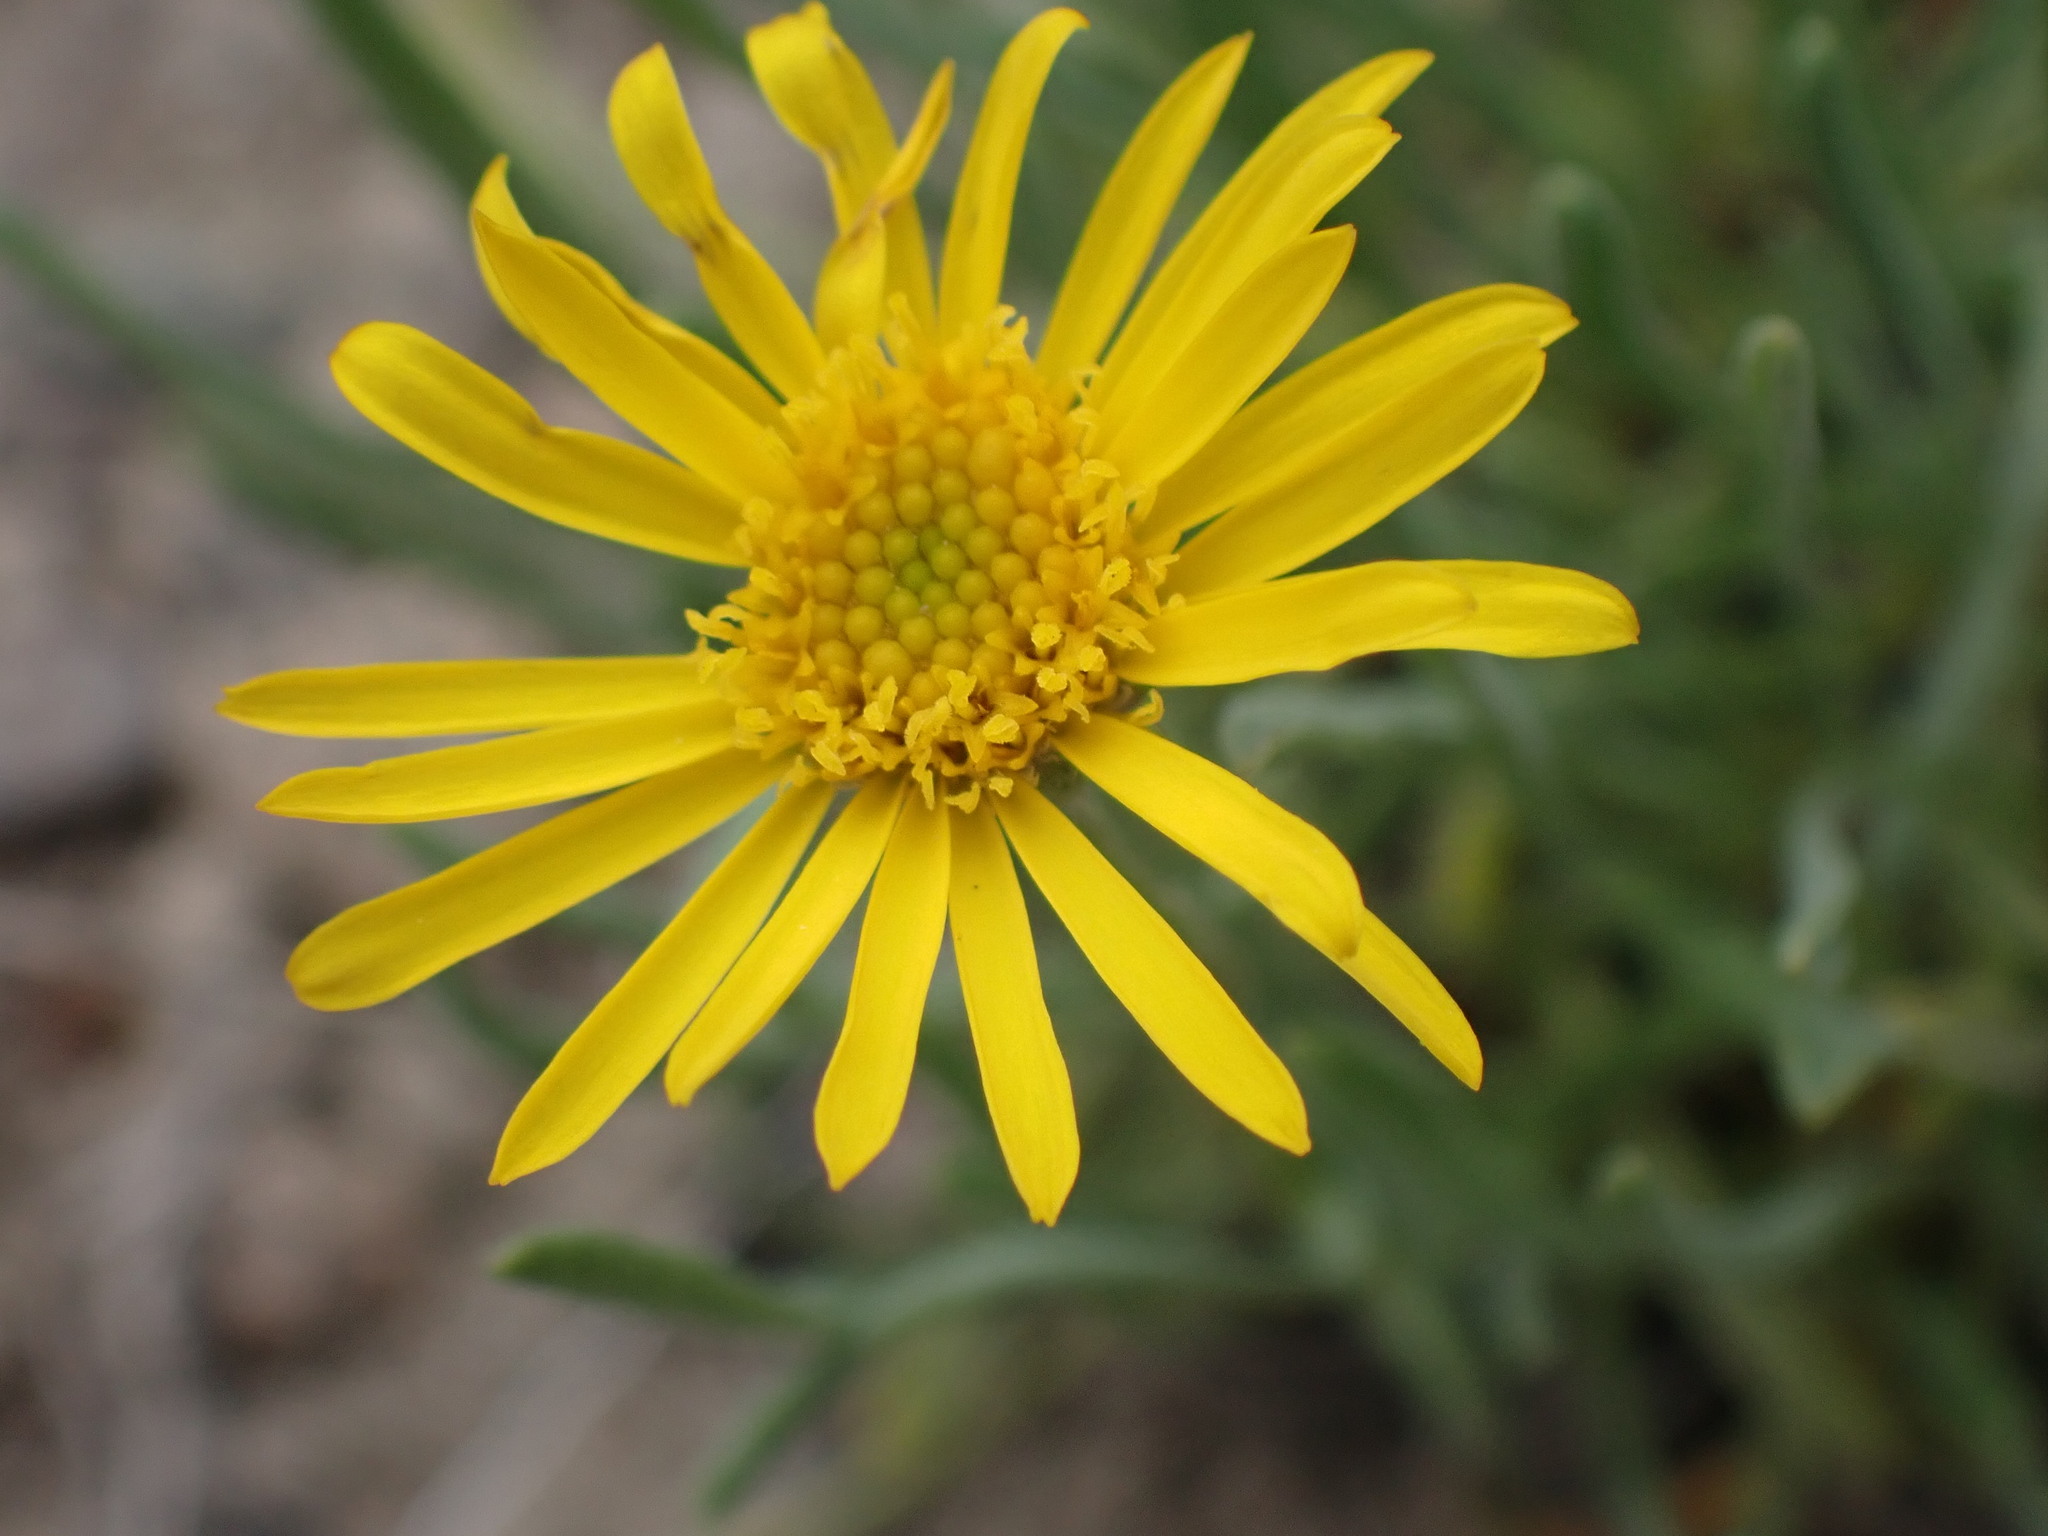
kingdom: Plantae
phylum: Tracheophyta
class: Magnoliopsida
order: Asterales
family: Asteraceae
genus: Erigeron
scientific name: Erigeron linearis
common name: Desert yellow fleabane
